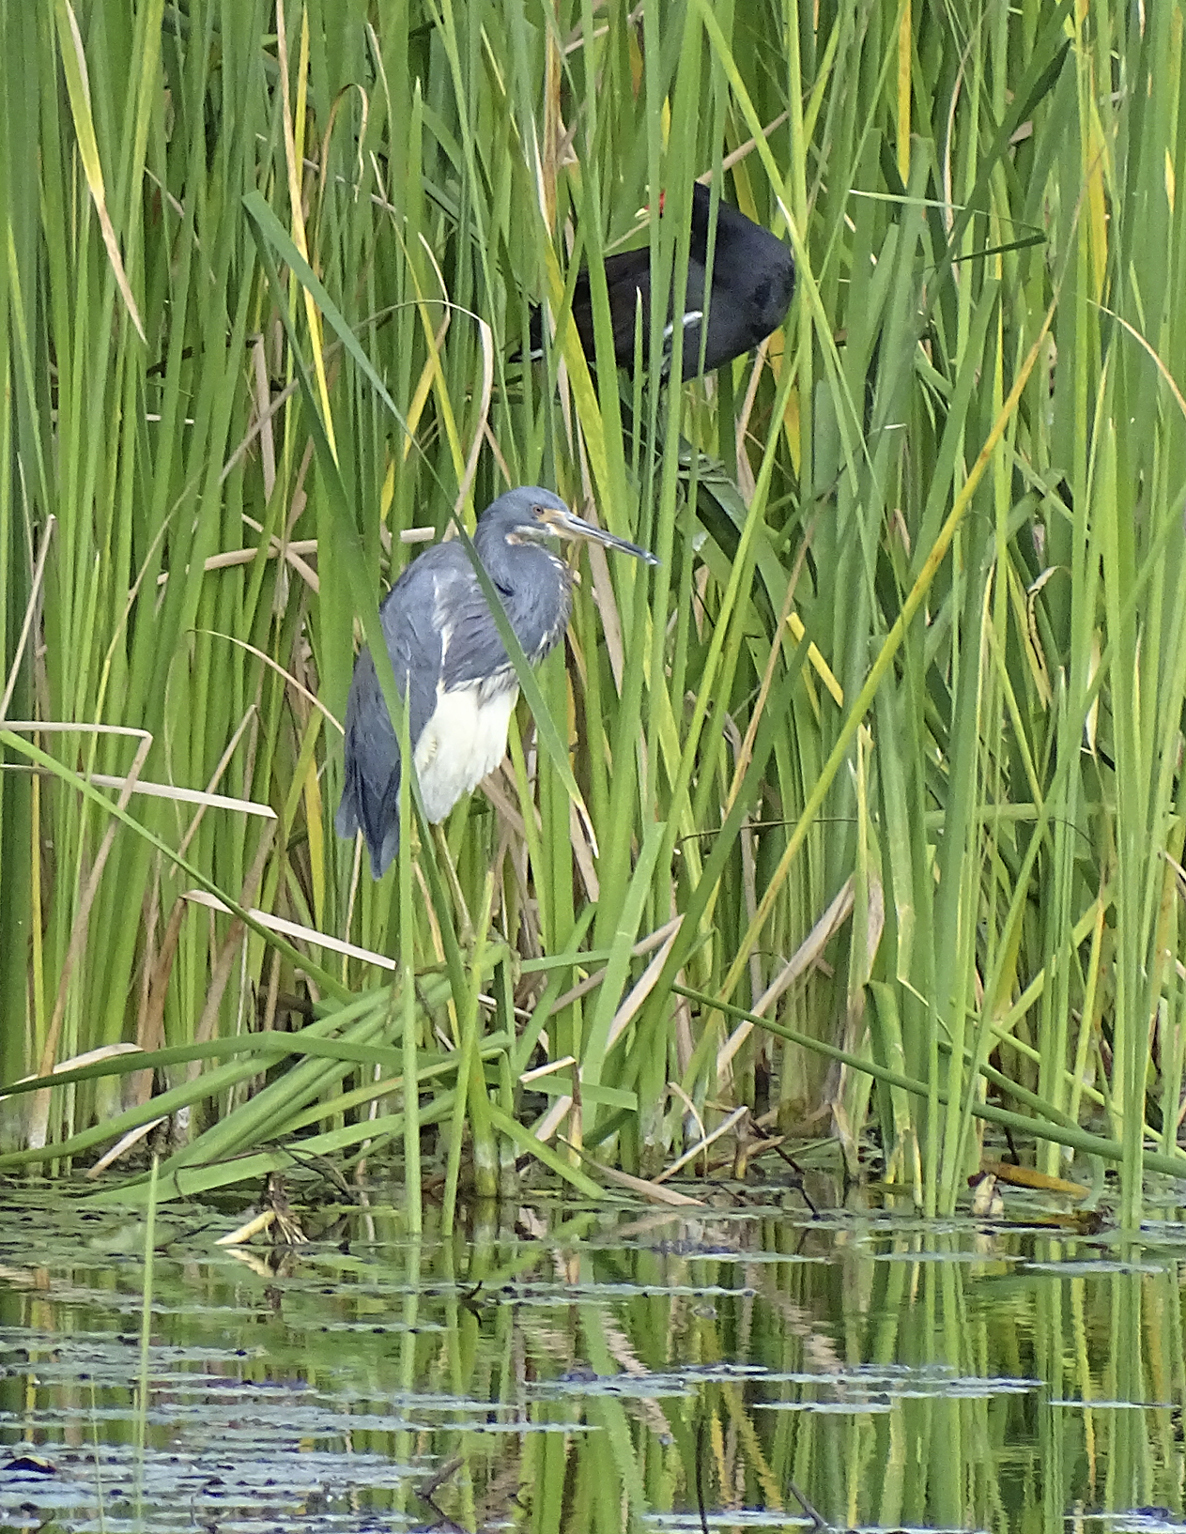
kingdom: Animalia
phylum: Chordata
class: Aves
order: Pelecaniformes
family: Ardeidae
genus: Egretta
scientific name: Egretta tricolor
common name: Tricolored heron
